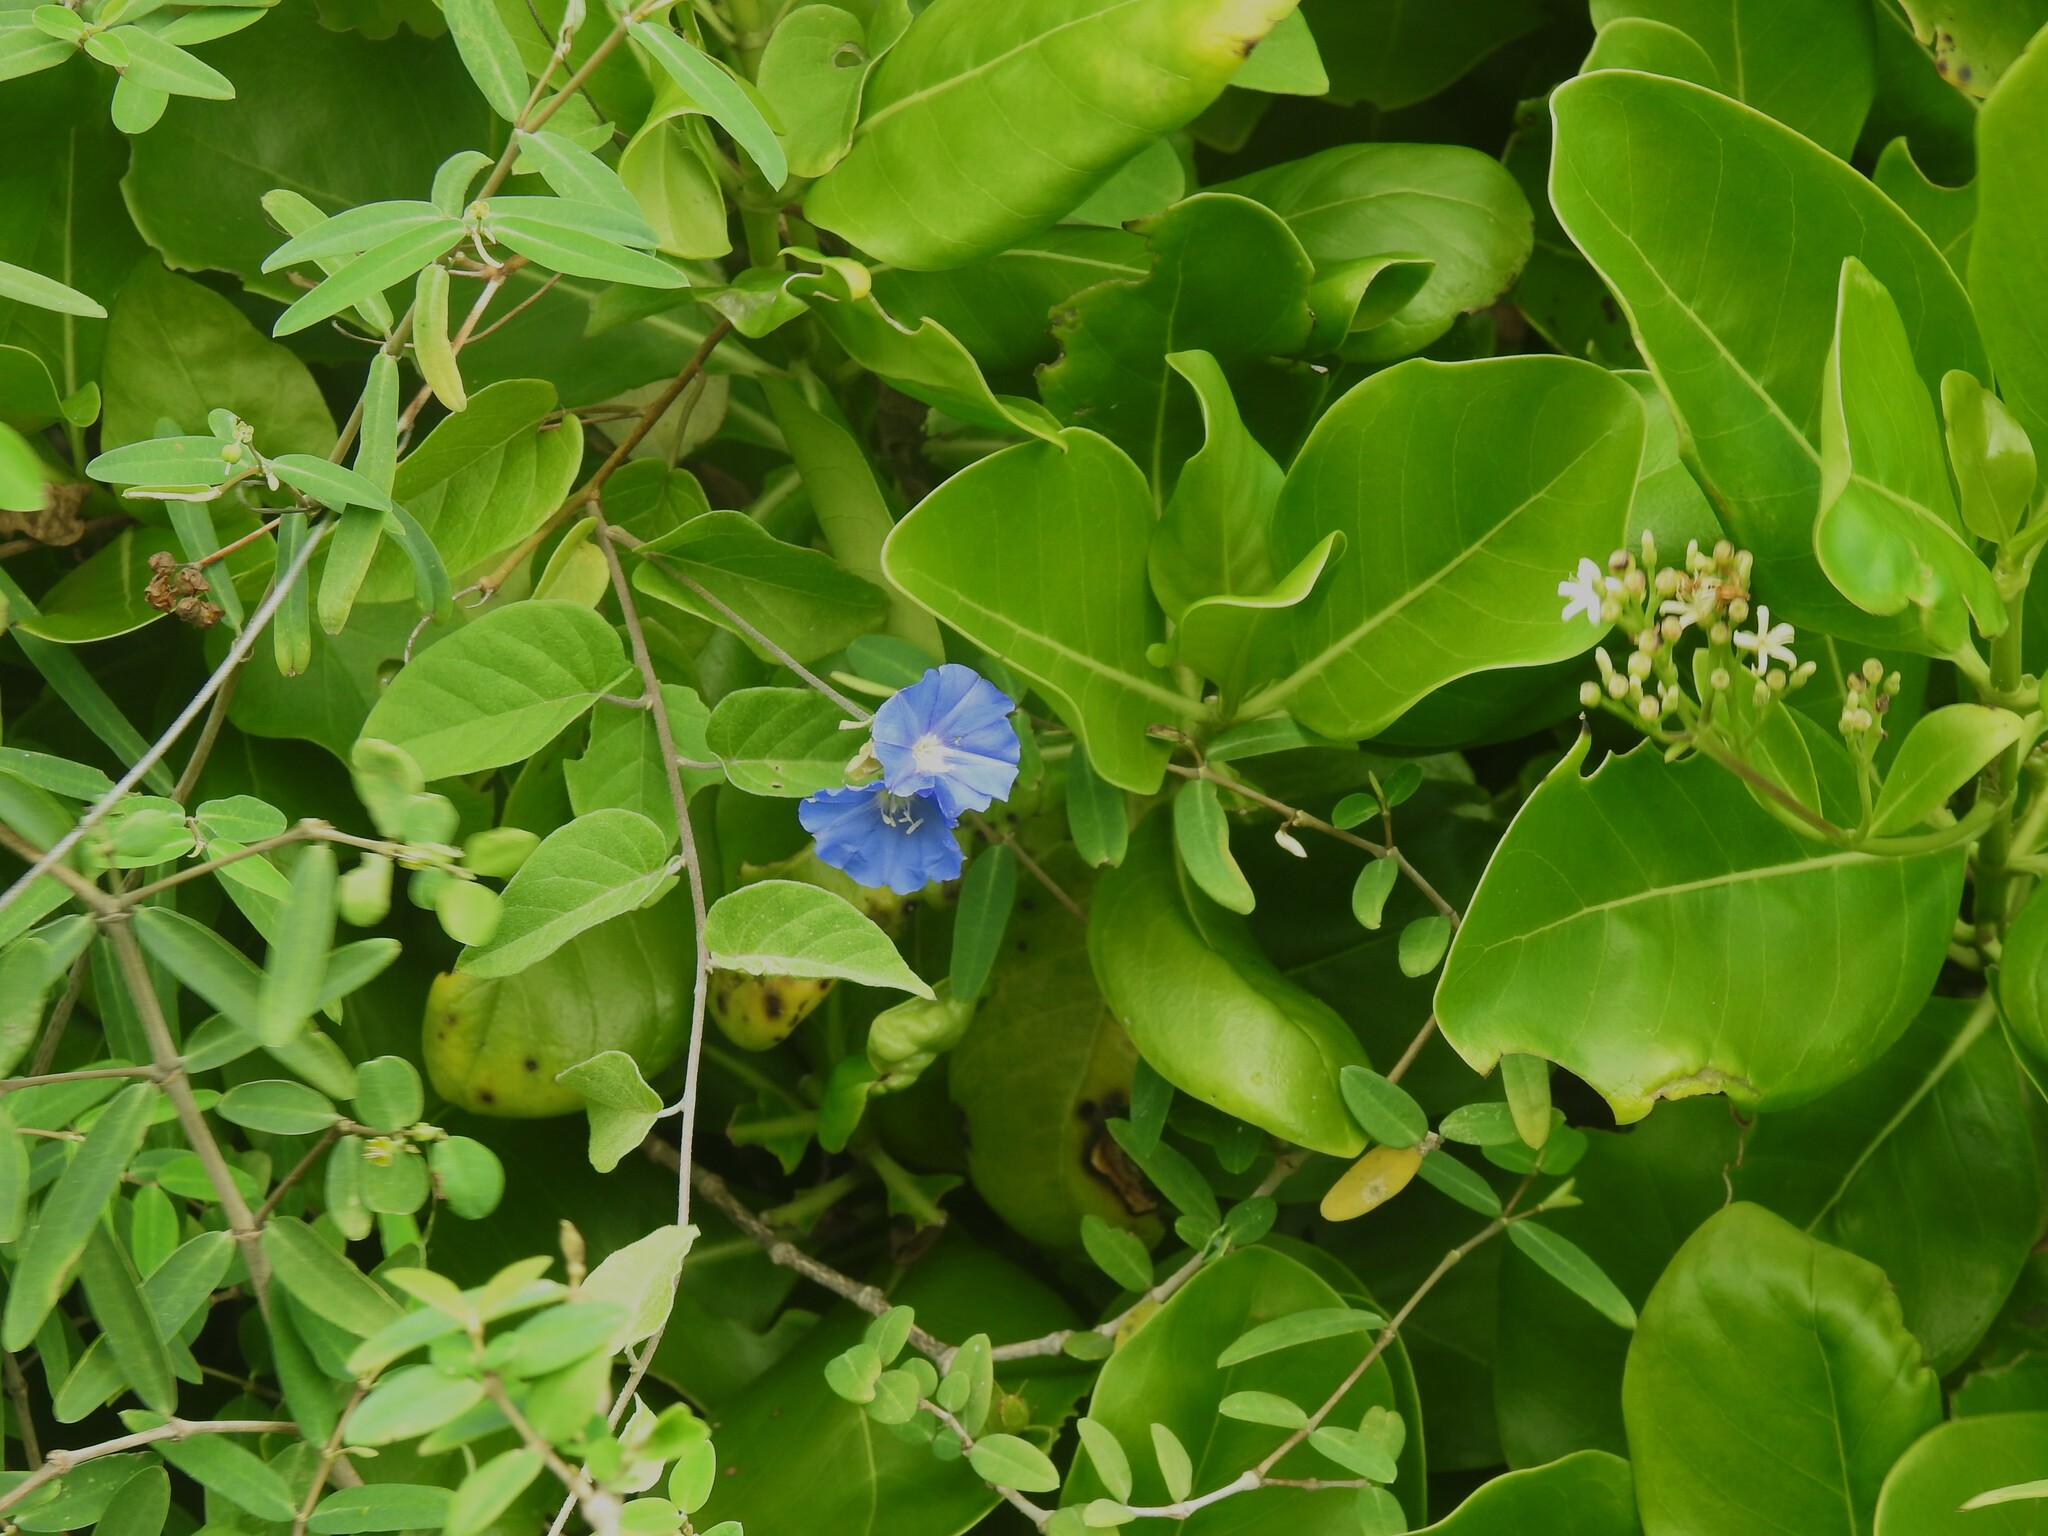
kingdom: Plantae
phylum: Tracheophyta
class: Magnoliopsida
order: Solanales
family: Convolvulaceae
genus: Jacquemontia
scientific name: Jacquemontia pentanthos
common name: Skyblue clustervine
